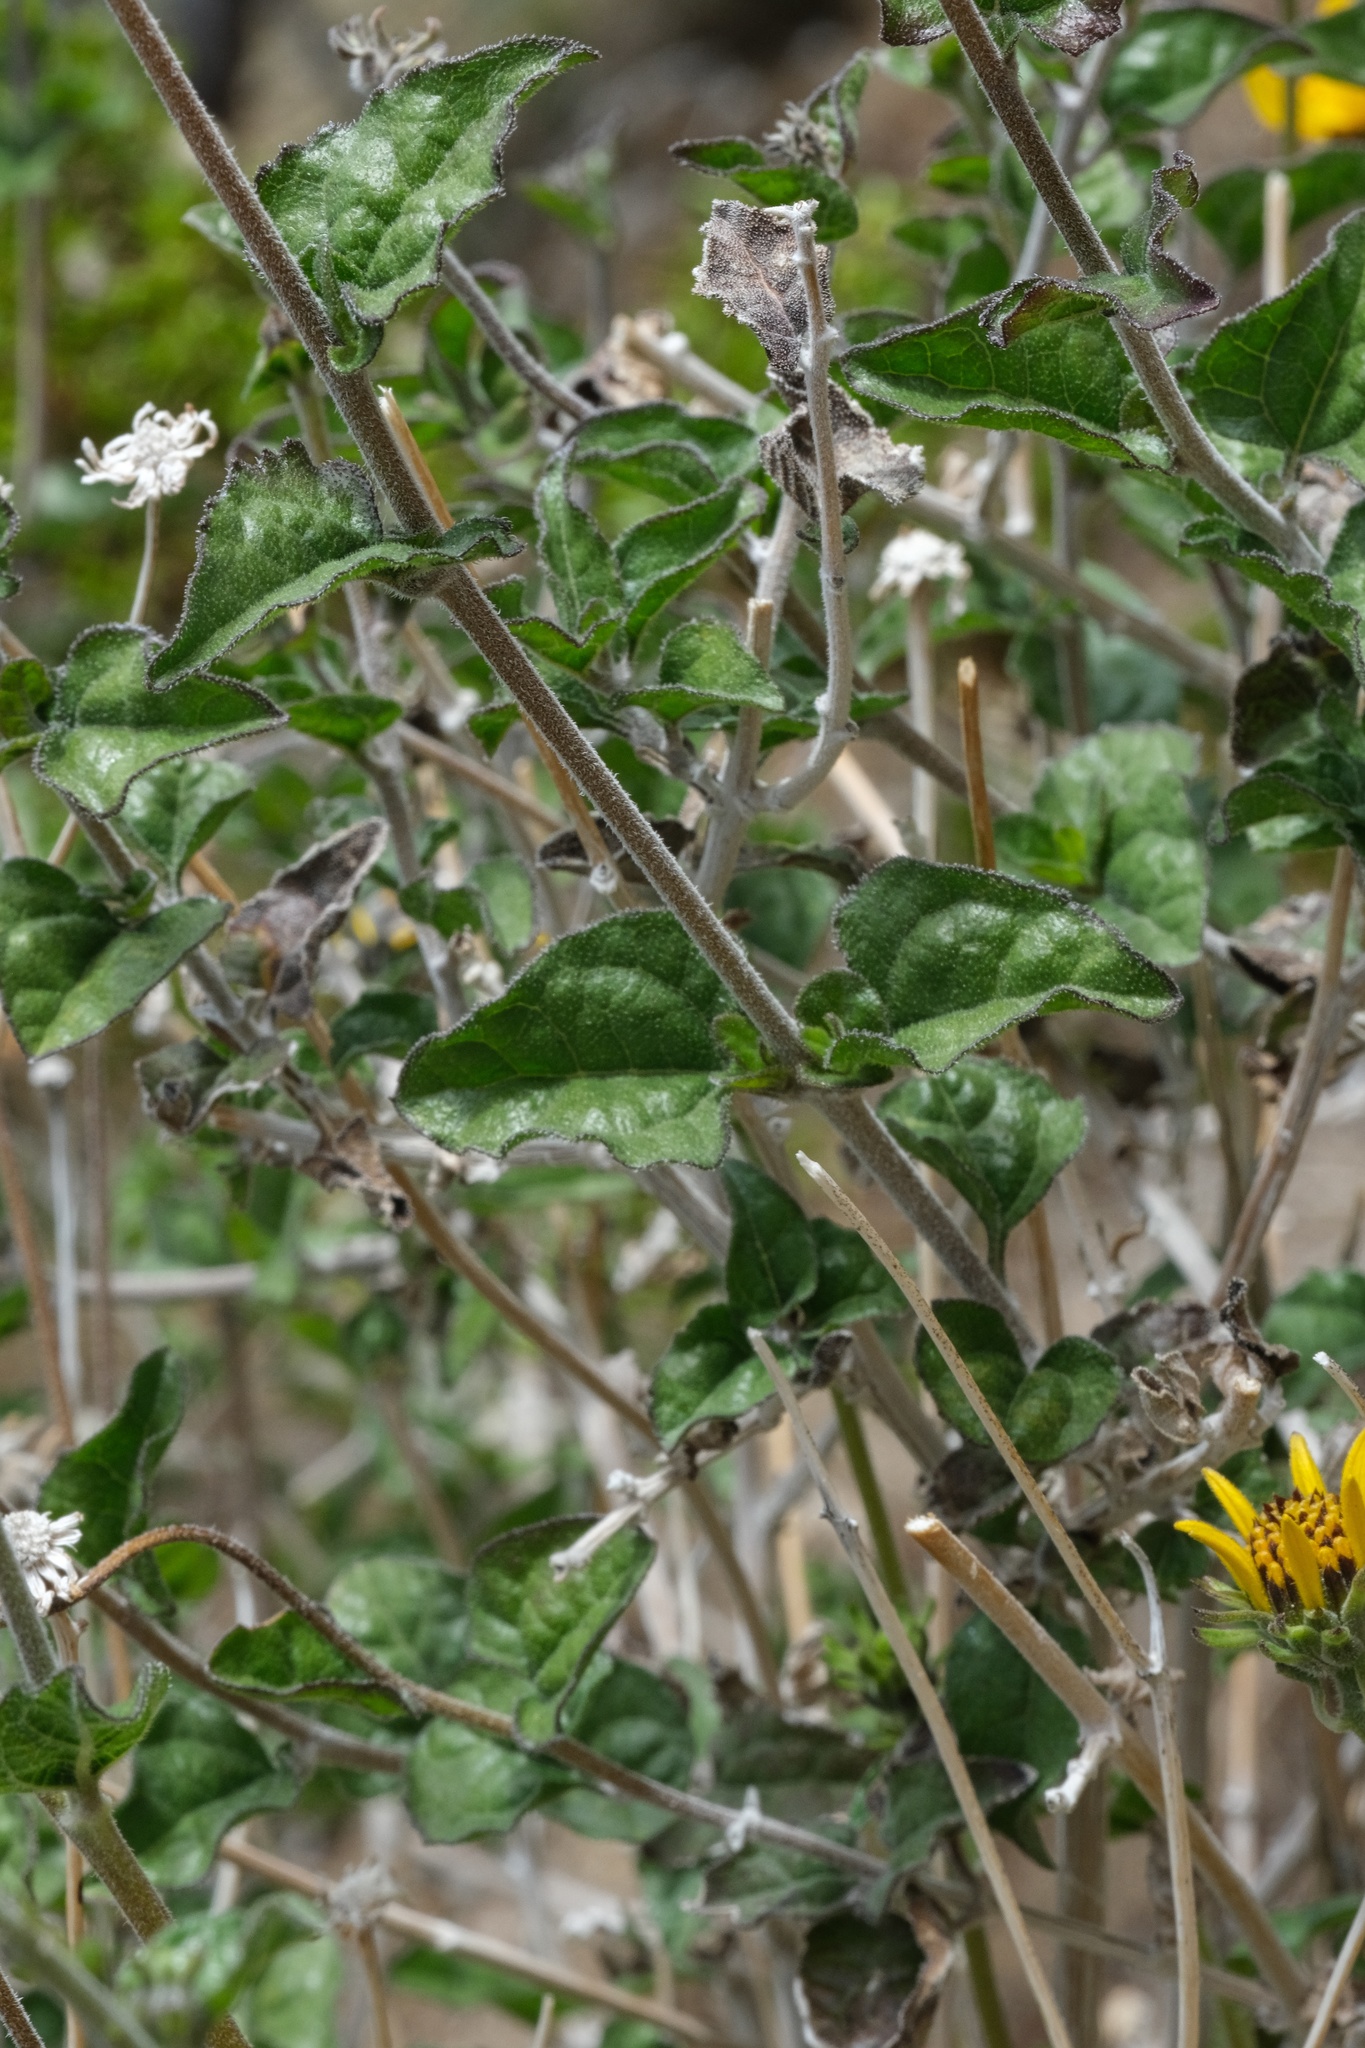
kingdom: Plantae
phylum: Tracheophyta
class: Magnoliopsida
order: Asterales
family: Asteraceae
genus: Bahiopsis
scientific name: Bahiopsis parishii
